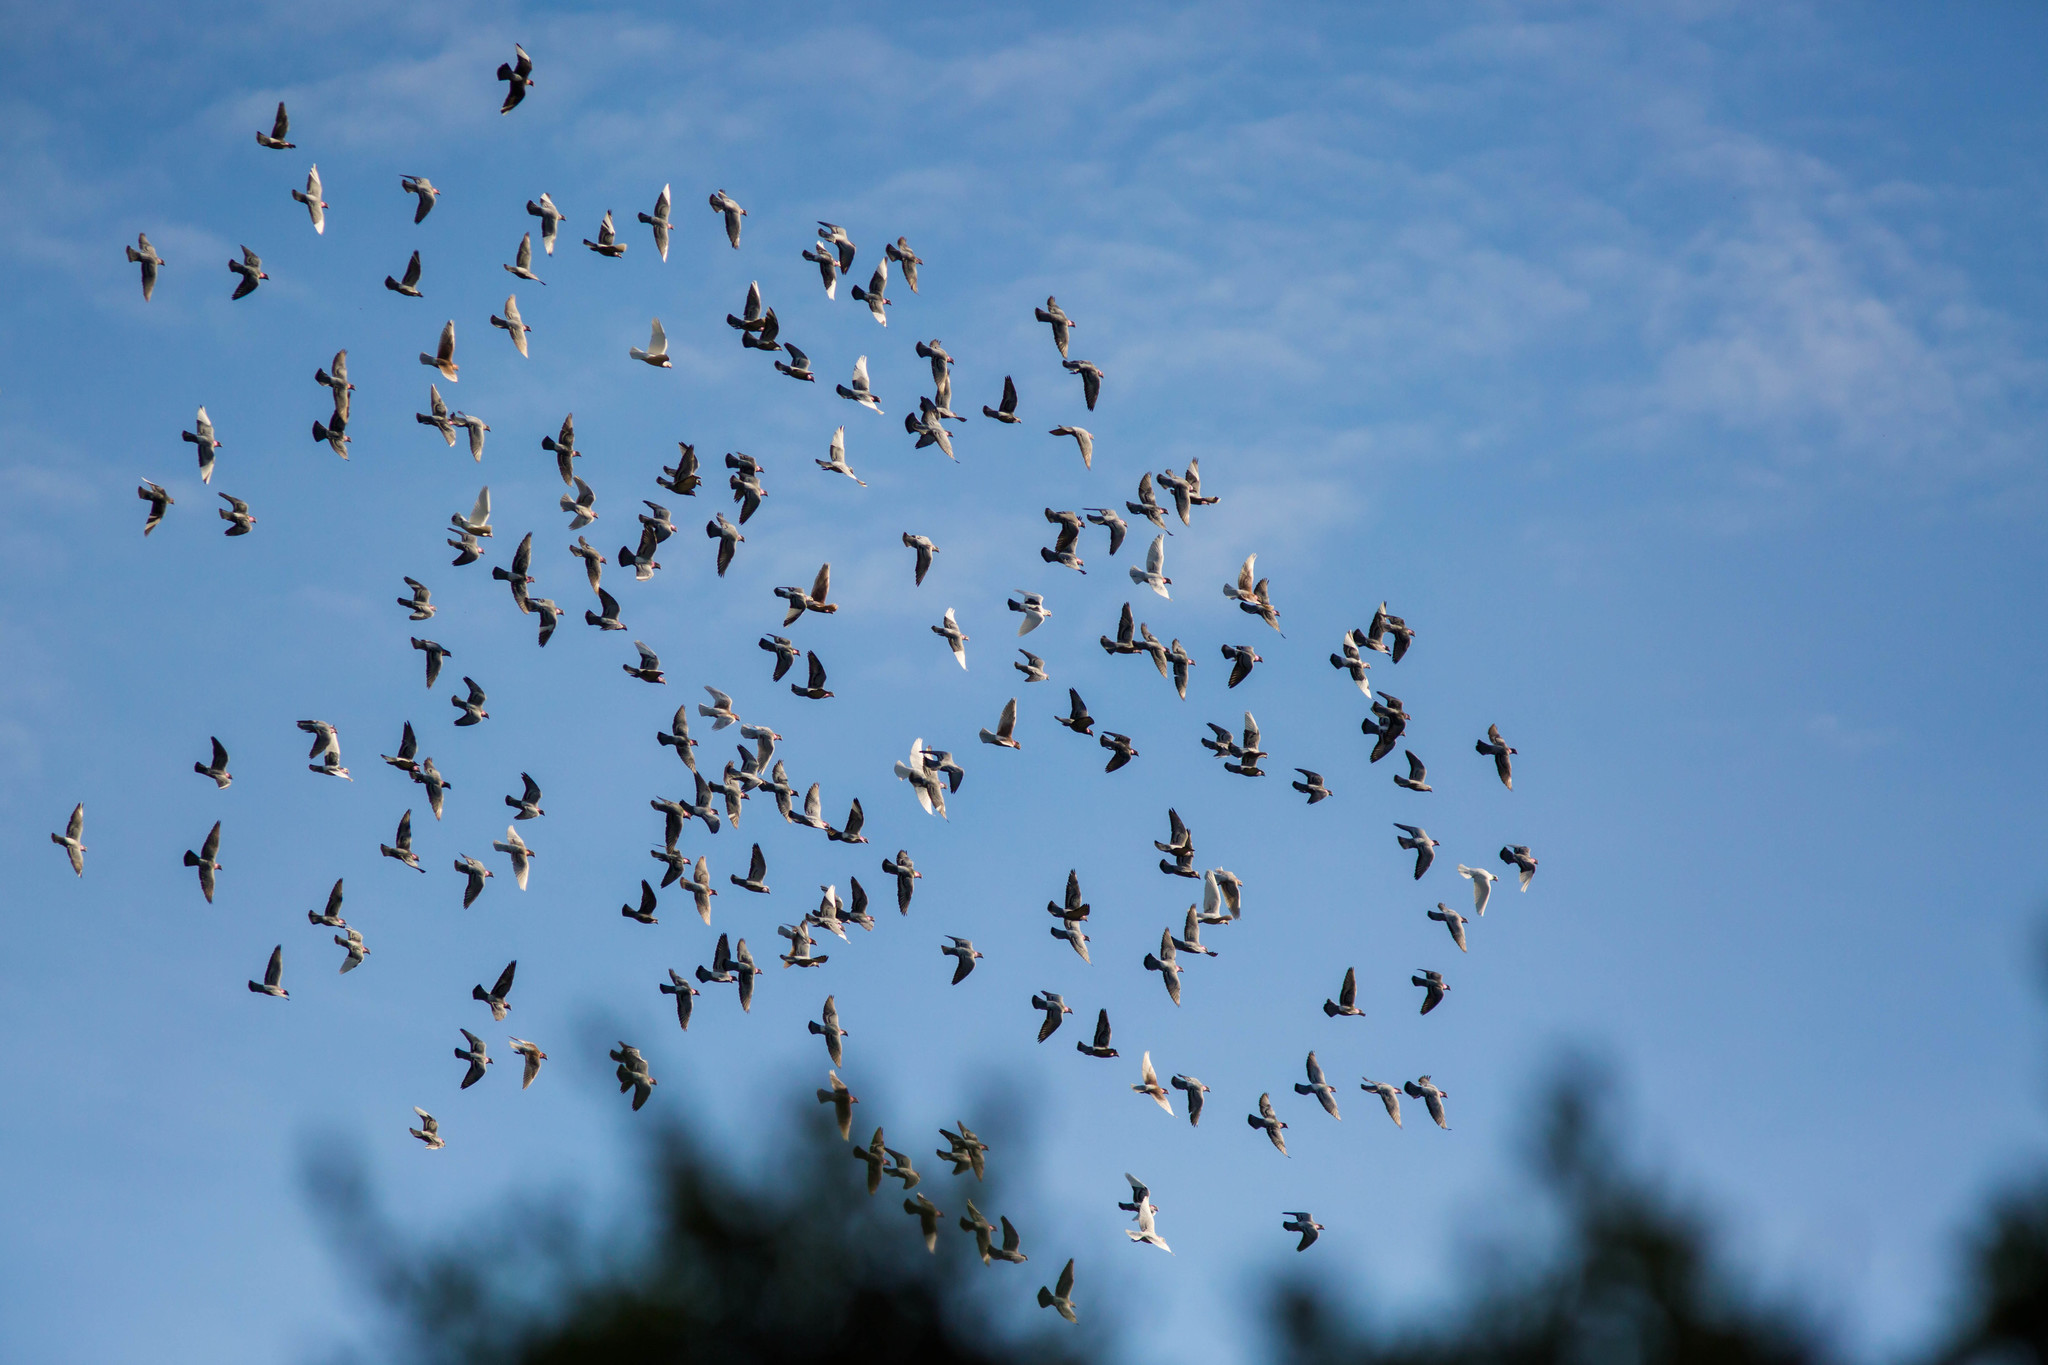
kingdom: Animalia
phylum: Chordata
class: Aves
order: Columbiformes
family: Columbidae
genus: Columba
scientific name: Columba livia
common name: Rock pigeon
